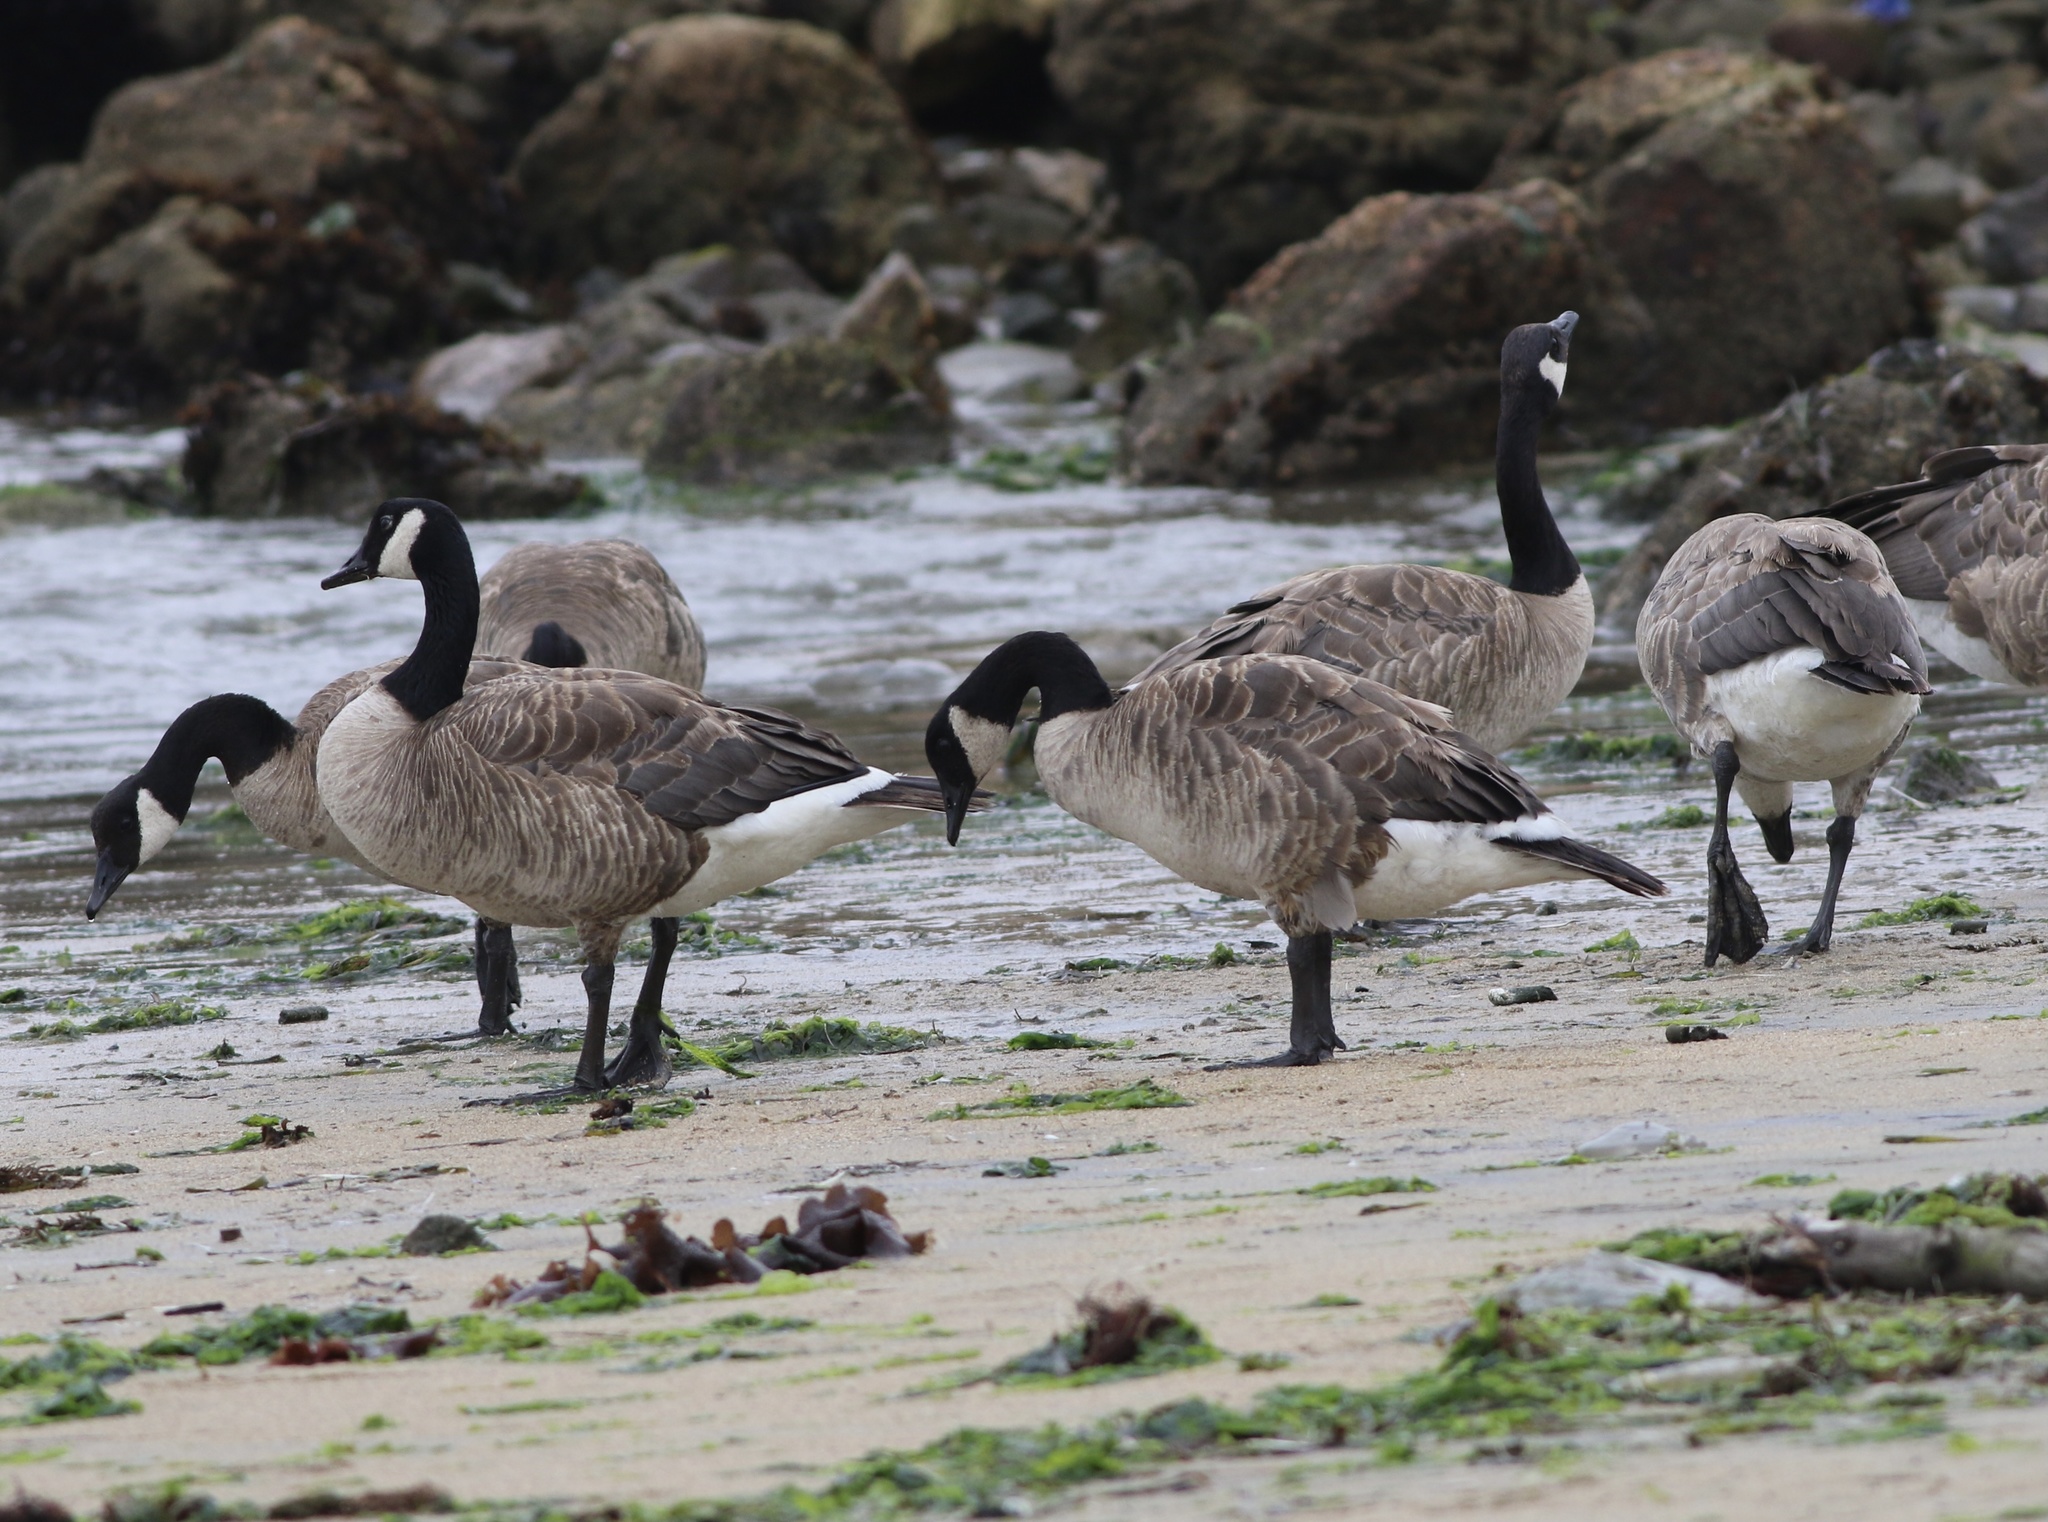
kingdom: Animalia
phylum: Chordata
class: Aves
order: Anseriformes
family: Anatidae
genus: Branta
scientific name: Branta canadensis
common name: Canada goose
